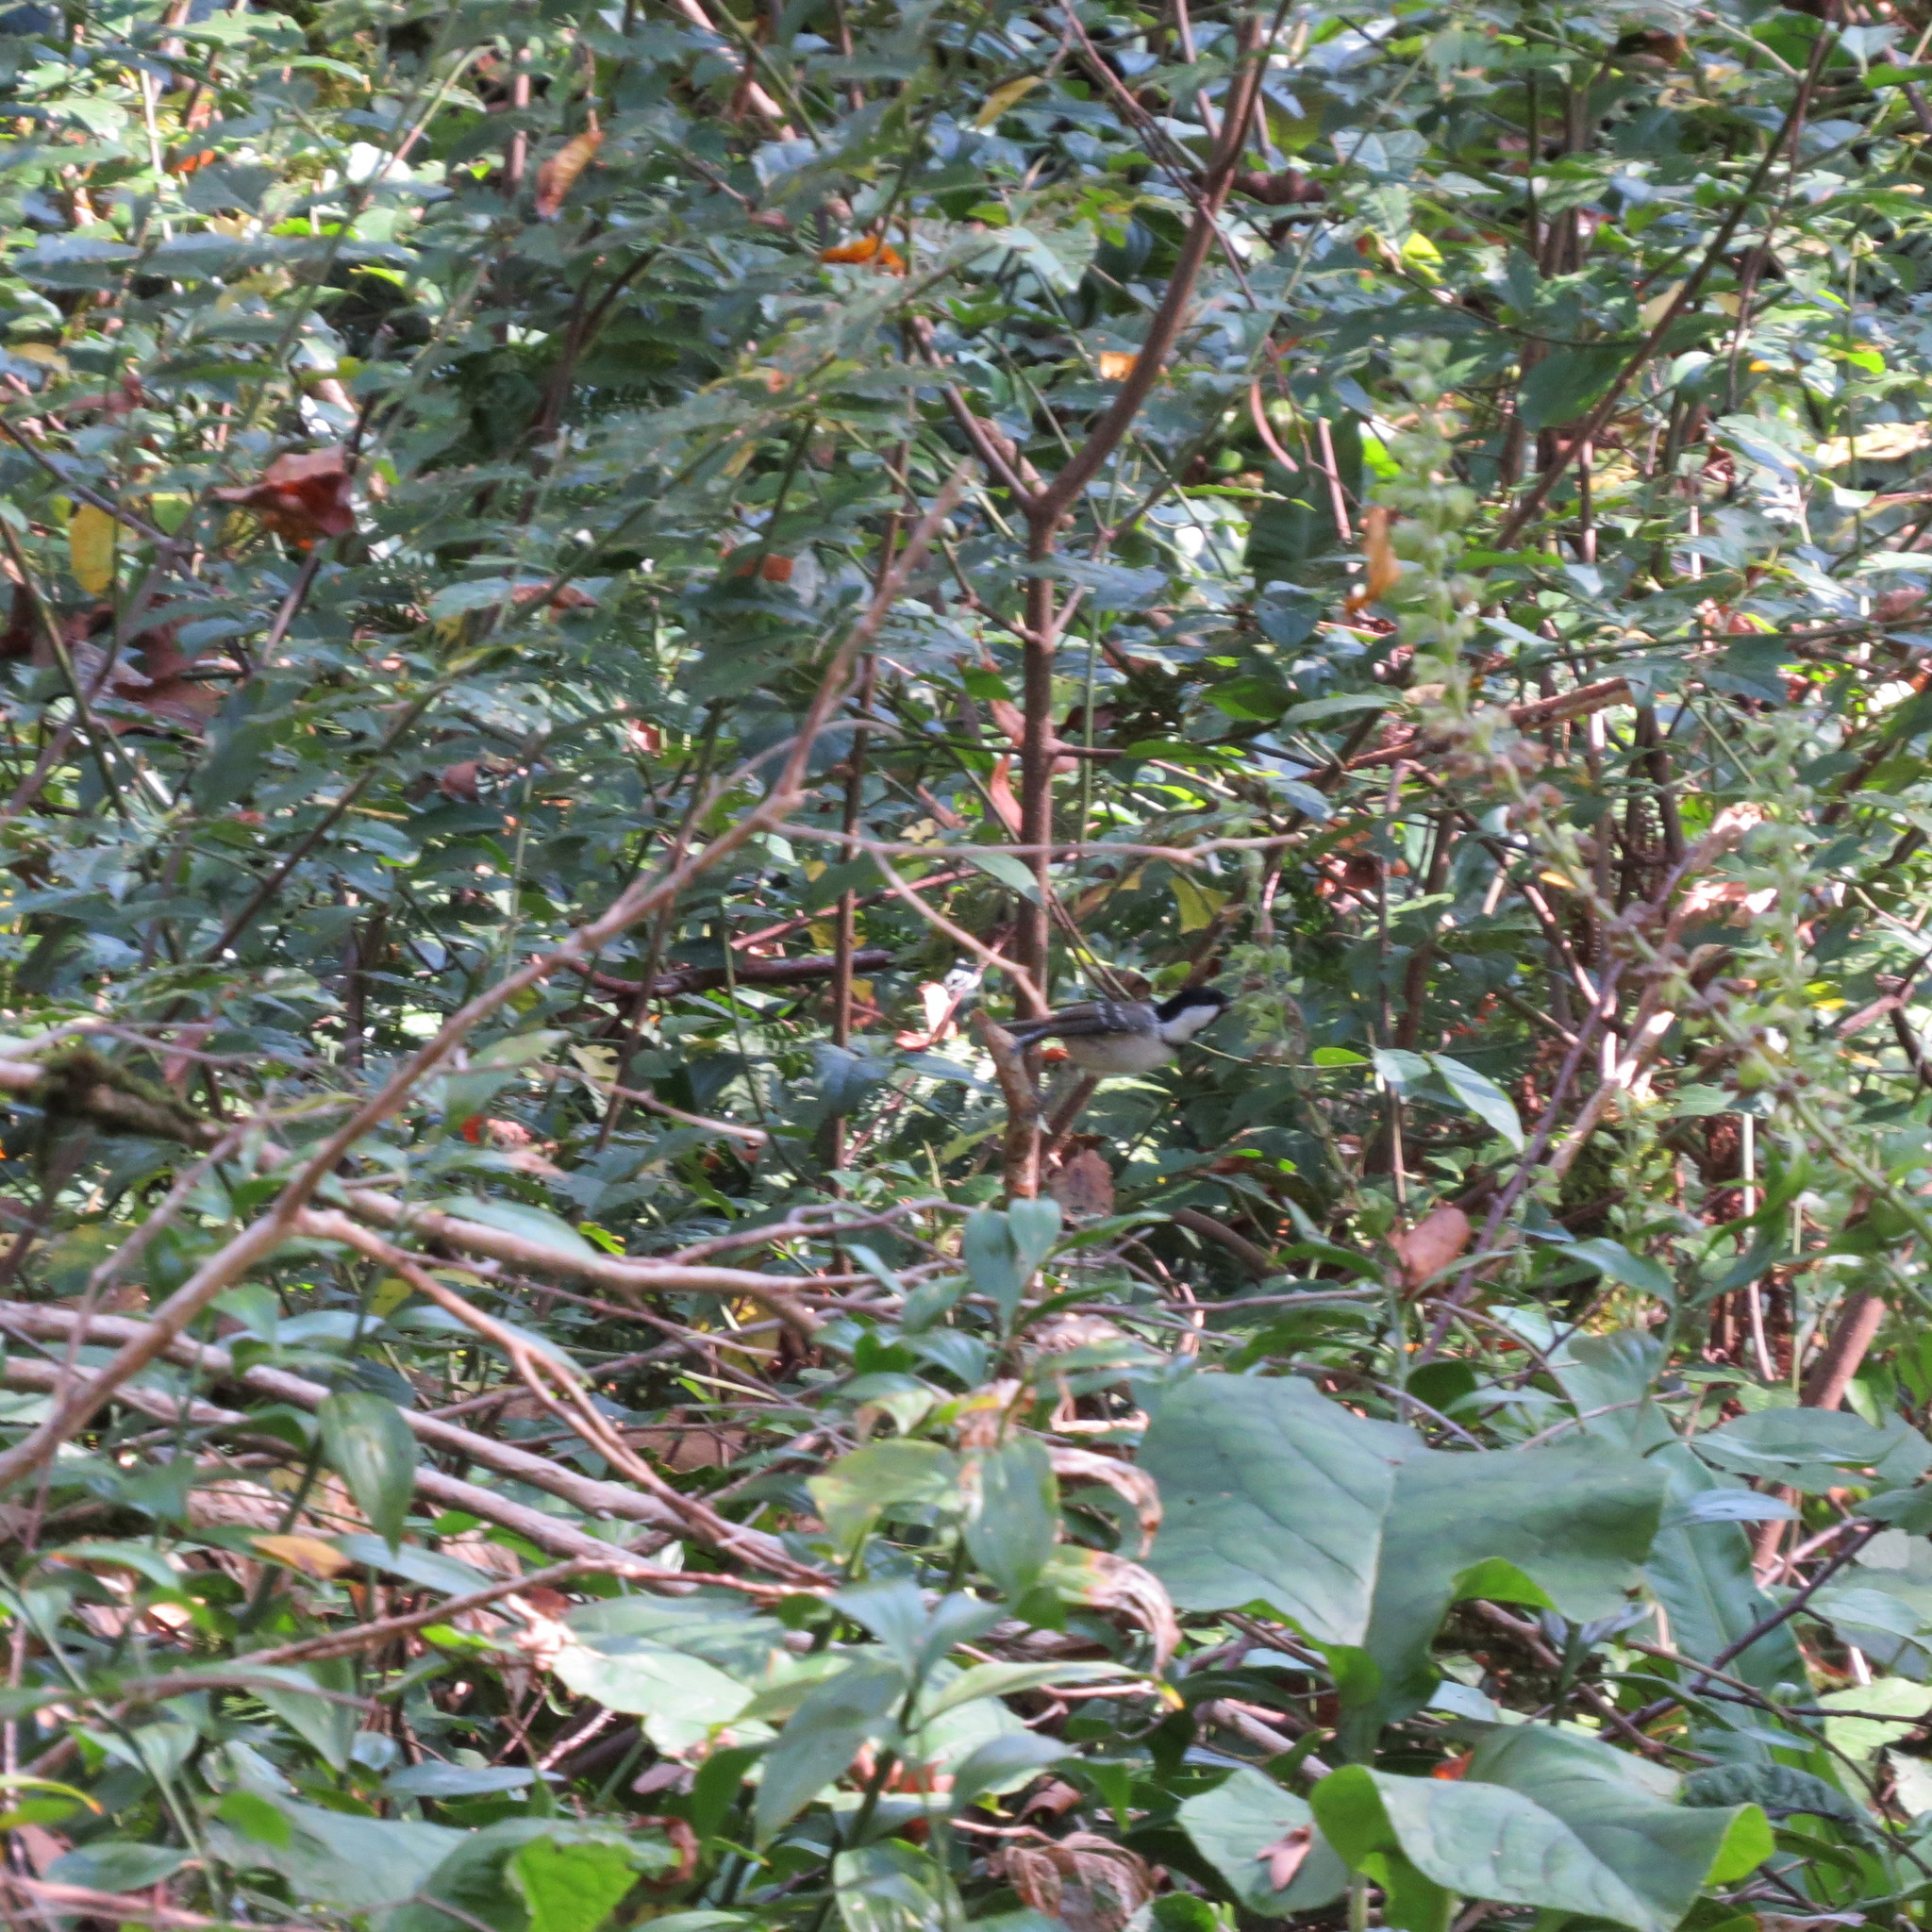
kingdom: Animalia
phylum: Chordata
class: Aves
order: Passeriformes
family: Paridae
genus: Periparus
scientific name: Periparus ater
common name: Coal tit
